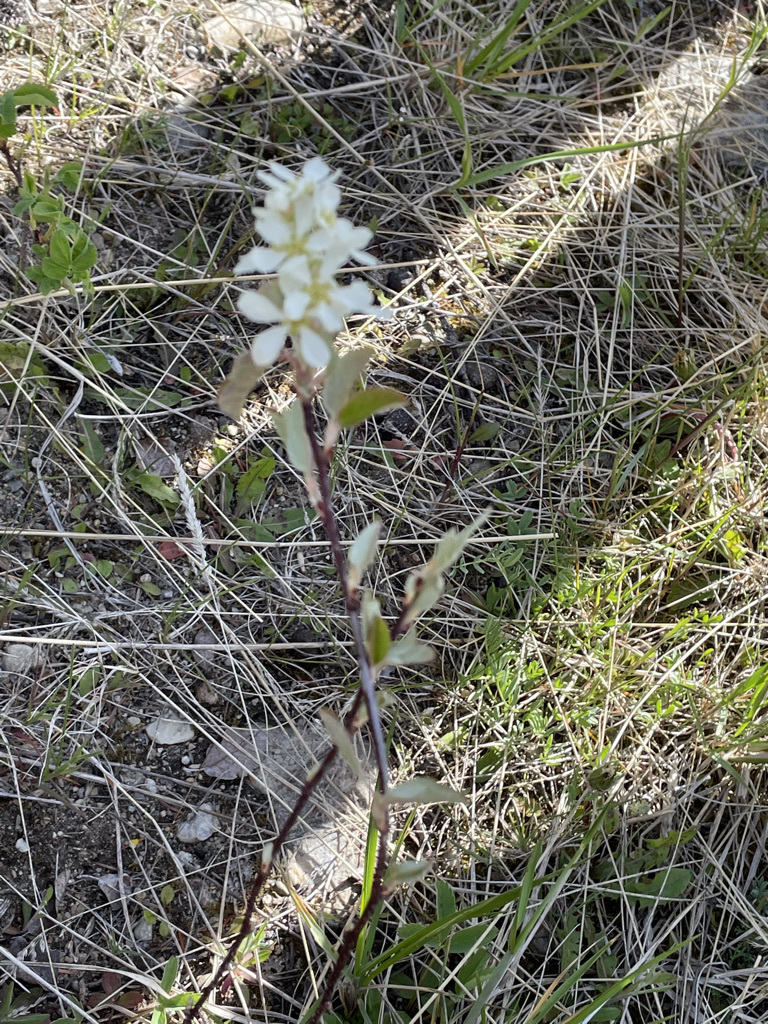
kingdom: Plantae
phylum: Tracheophyta
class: Magnoliopsida
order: Rosales
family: Rosaceae
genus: Amelanchier
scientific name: Amelanchier alnifolia
